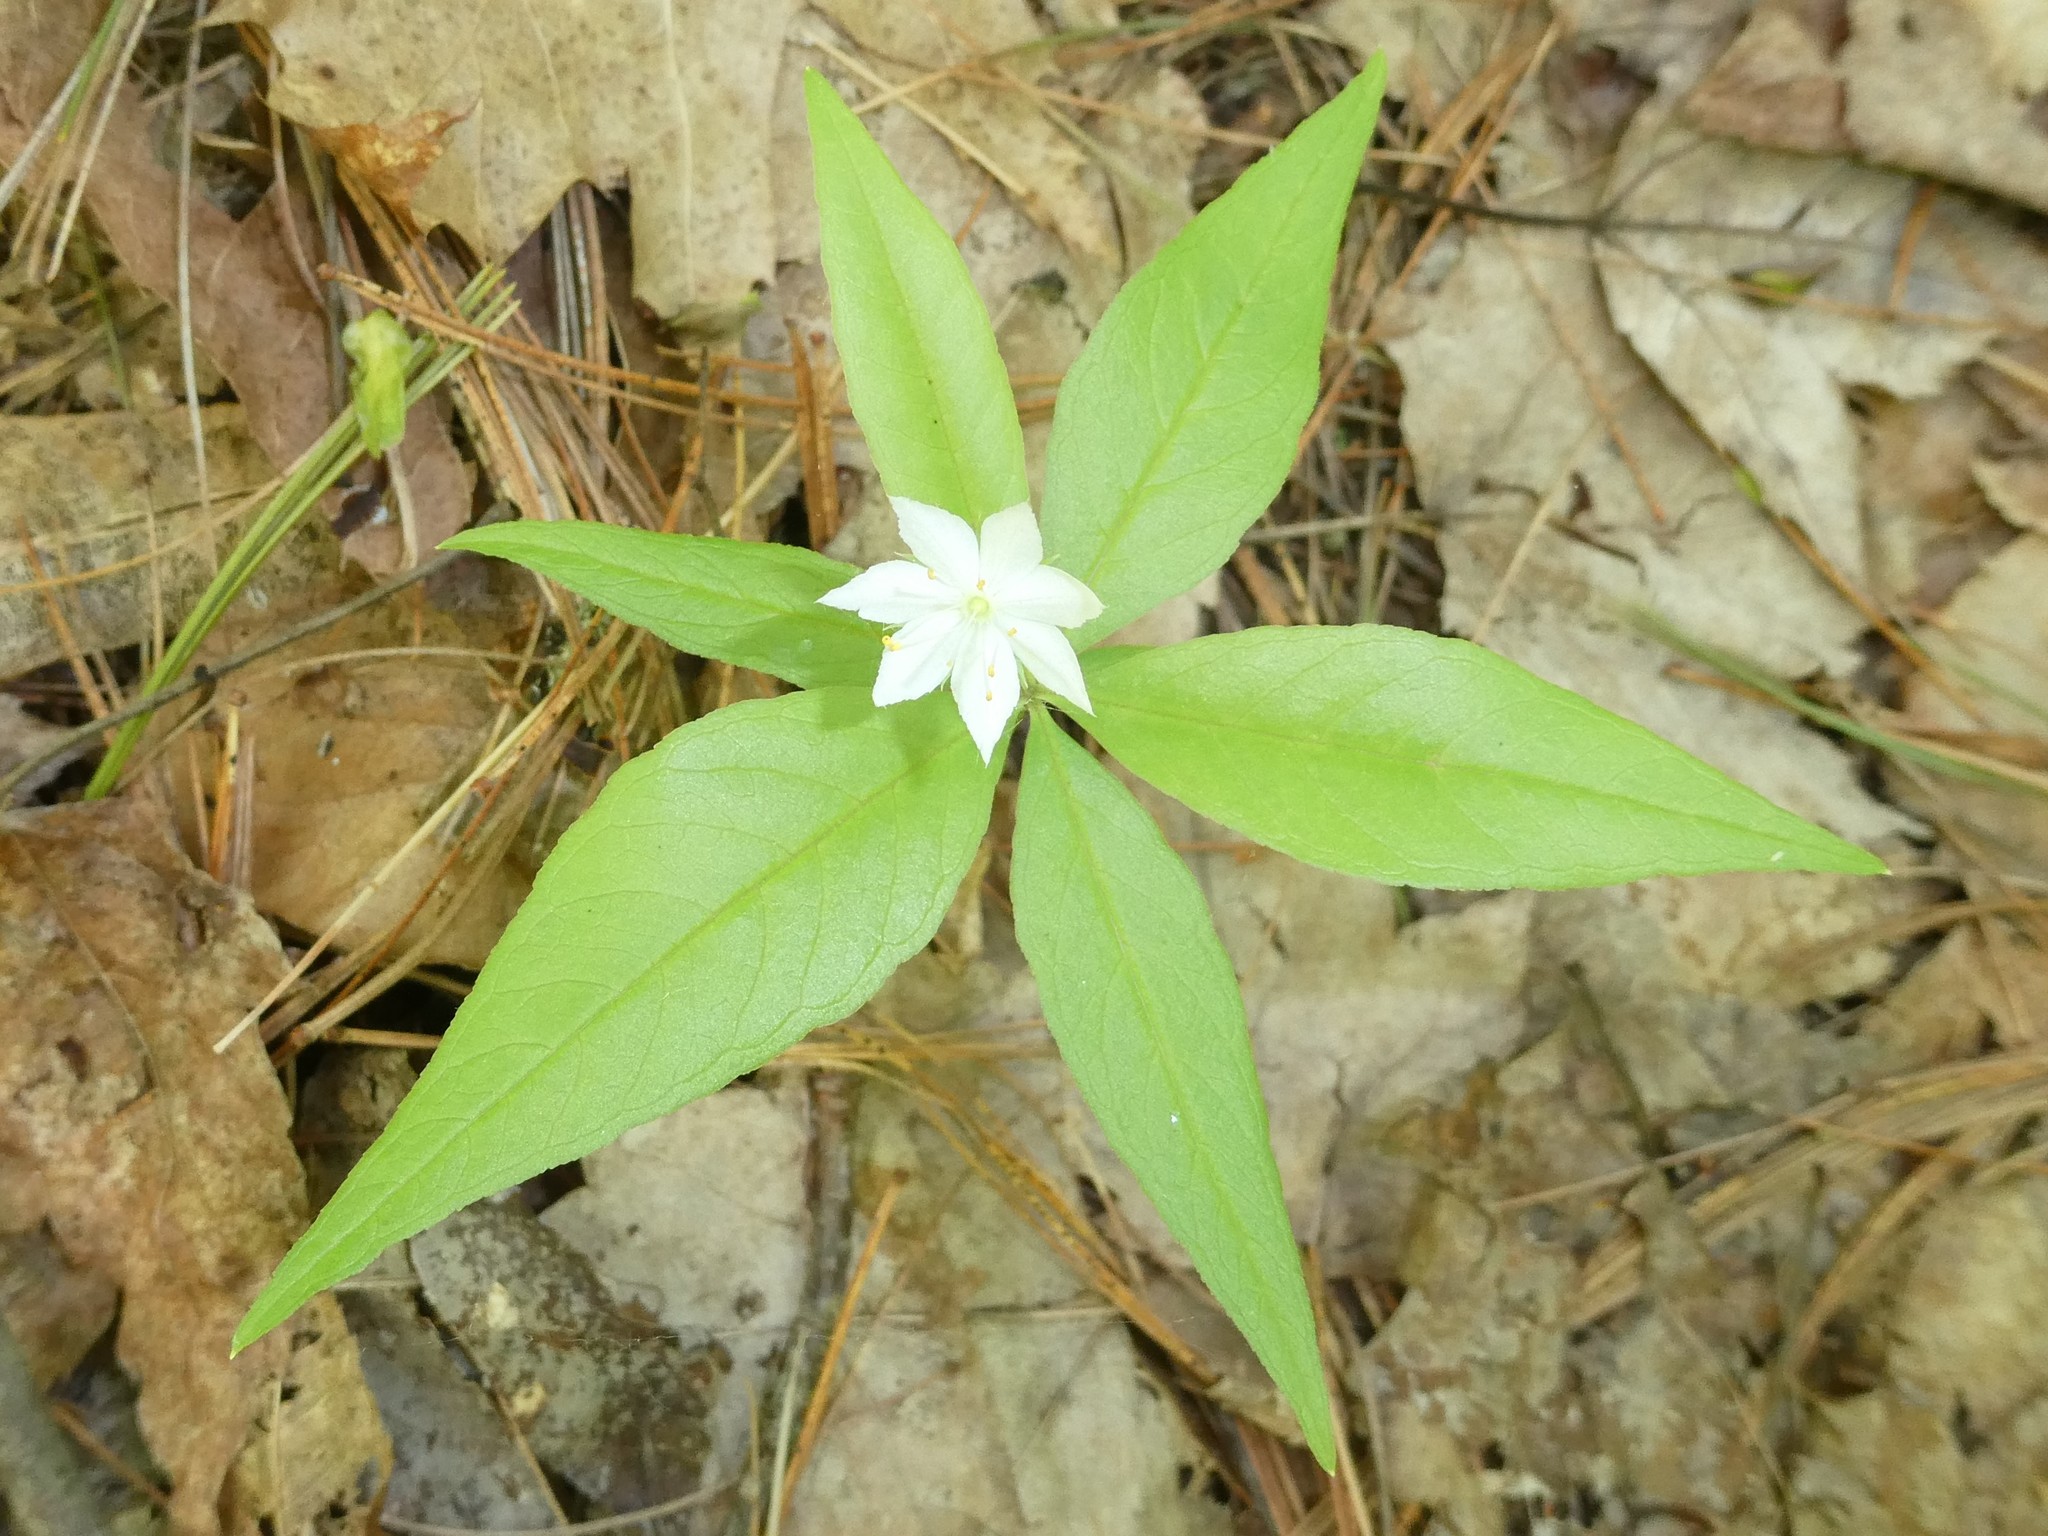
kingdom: Plantae
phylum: Tracheophyta
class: Magnoliopsida
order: Ericales
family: Primulaceae
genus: Lysimachia
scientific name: Lysimachia borealis
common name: American starflower
